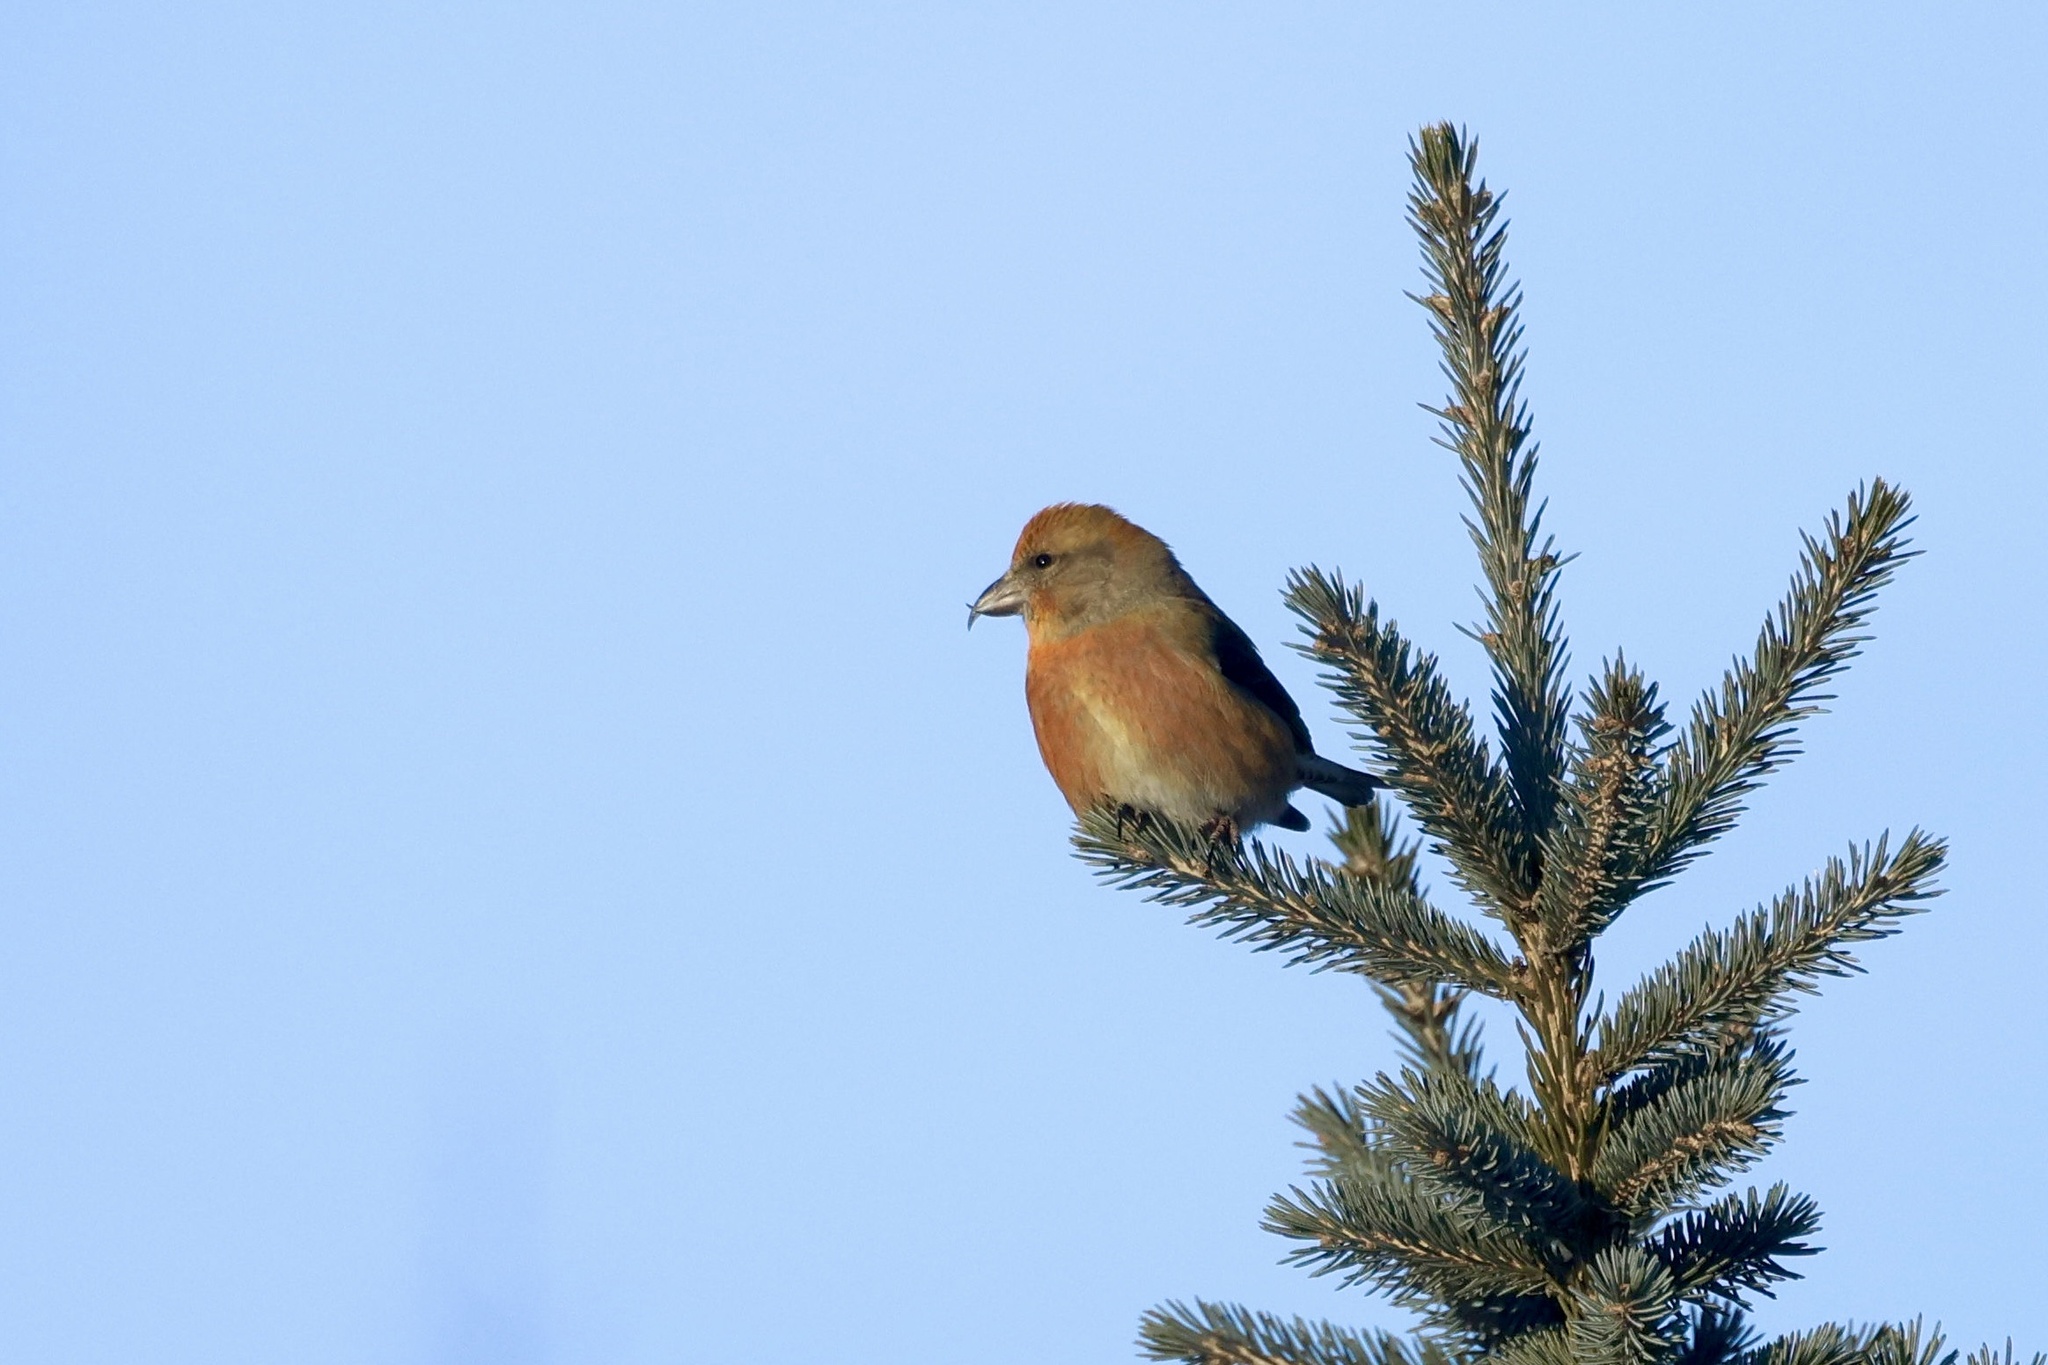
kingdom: Animalia
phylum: Chordata
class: Aves
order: Passeriformes
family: Fringillidae
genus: Loxia
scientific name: Loxia curvirostra
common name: Red crossbill
